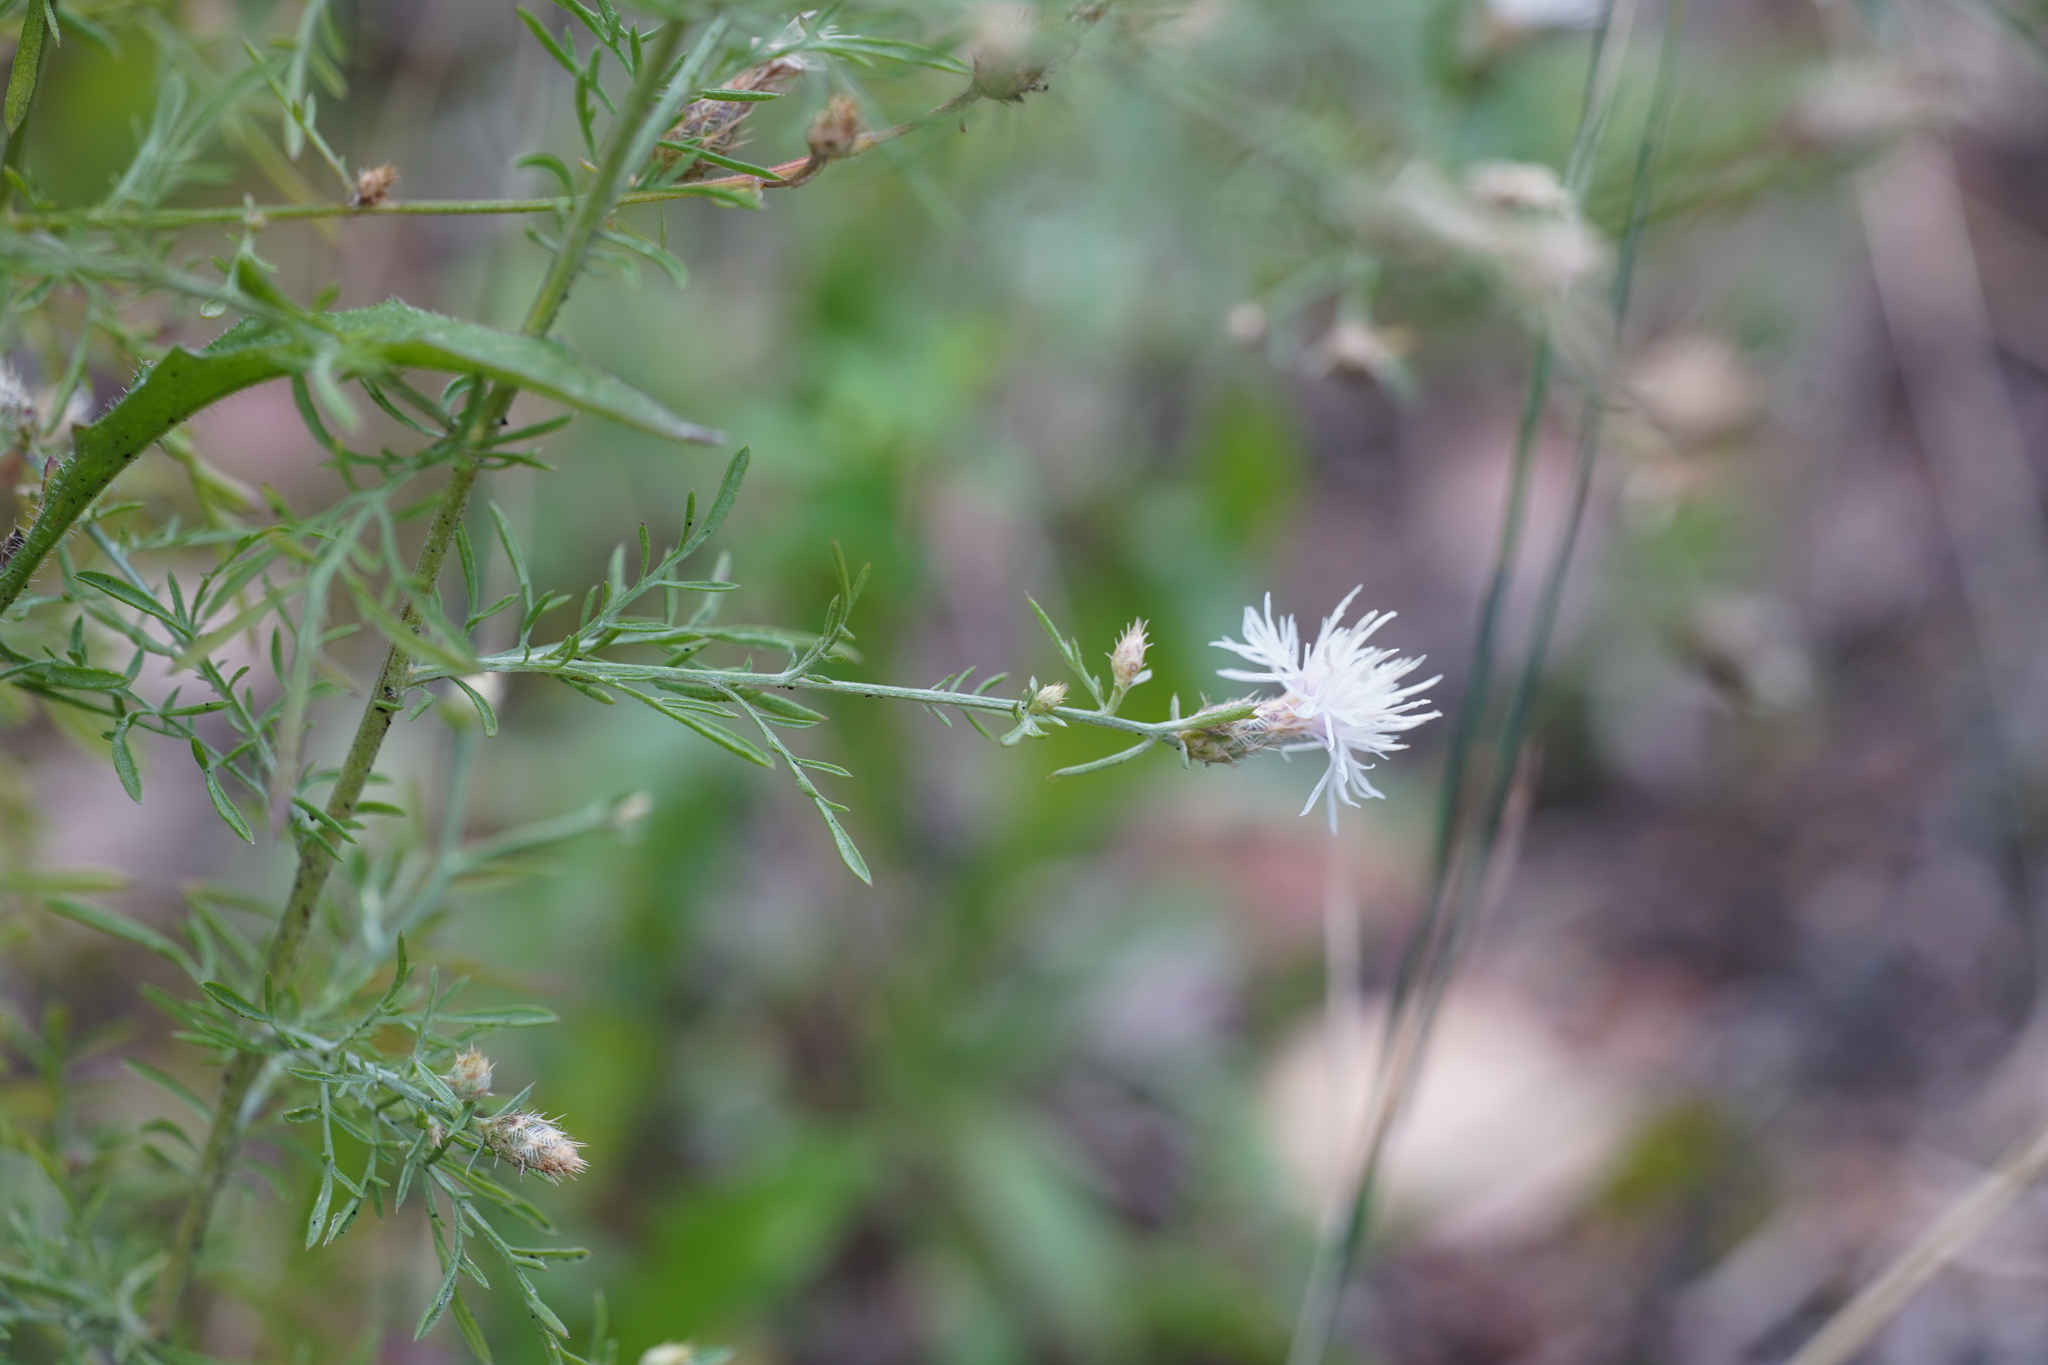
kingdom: Plantae
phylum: Tracheophyta
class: Magnoliopsida
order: Asterales
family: Asteraceae
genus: Centaurea
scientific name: Centaurea diffusa
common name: Diffuse knapweed
